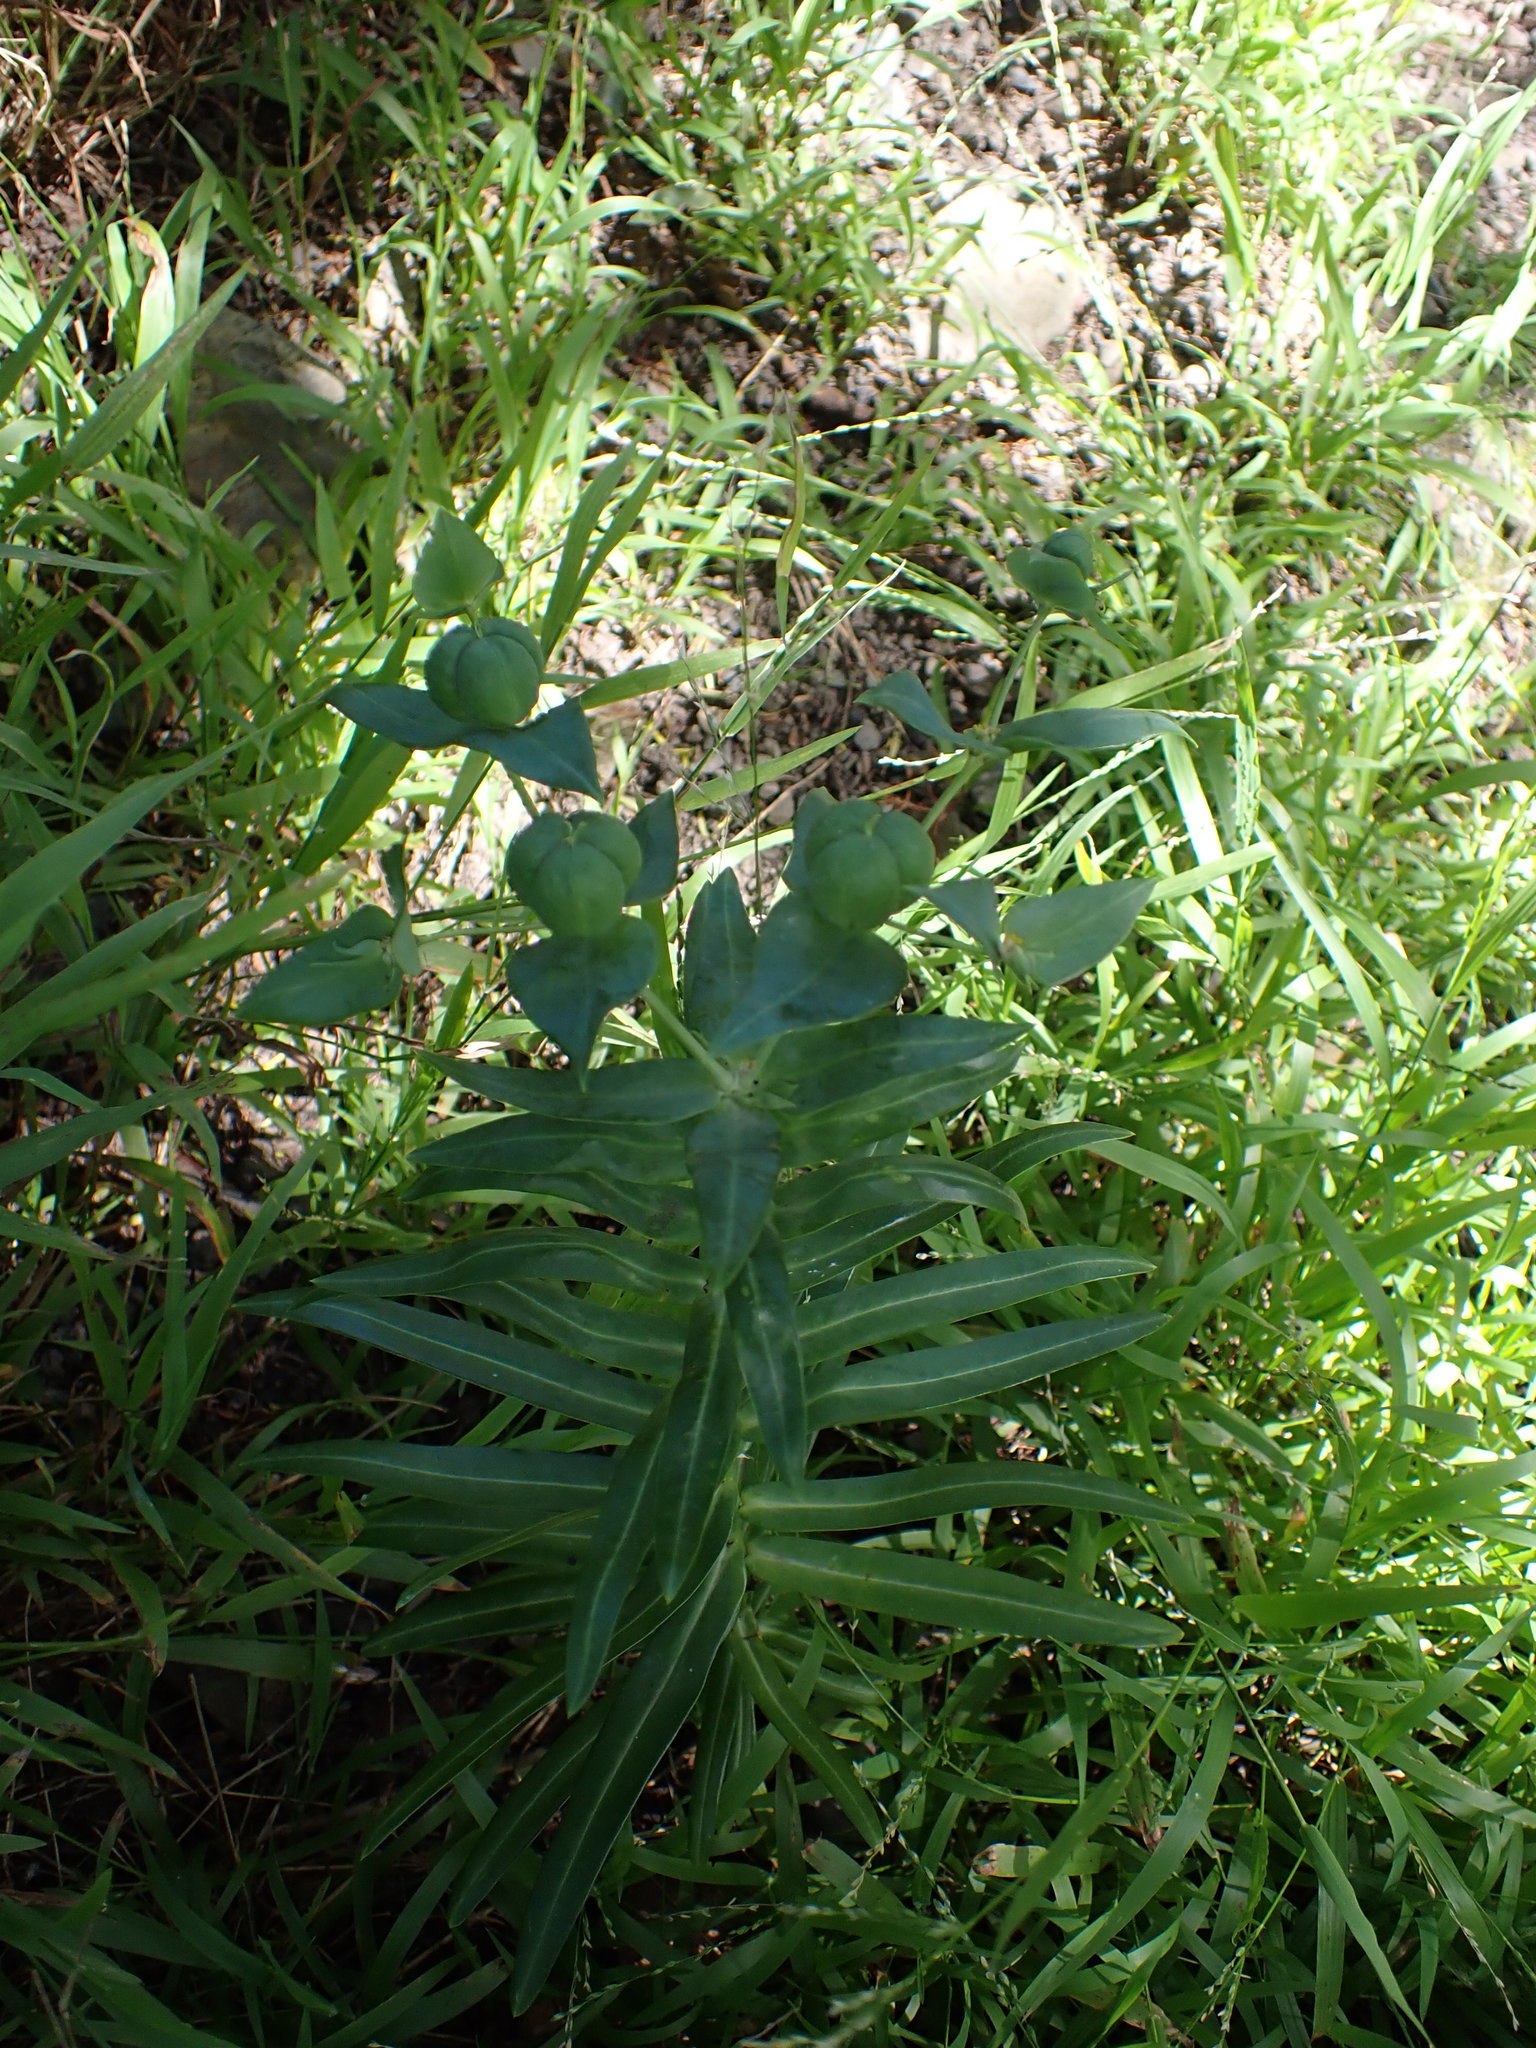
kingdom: Plantae
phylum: Tracheophyta
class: Magnoliopsida
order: Malpighiales
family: Euphorbiaceae
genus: Euphorbia
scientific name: Euphorbia lathyris
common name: Caper spurge
